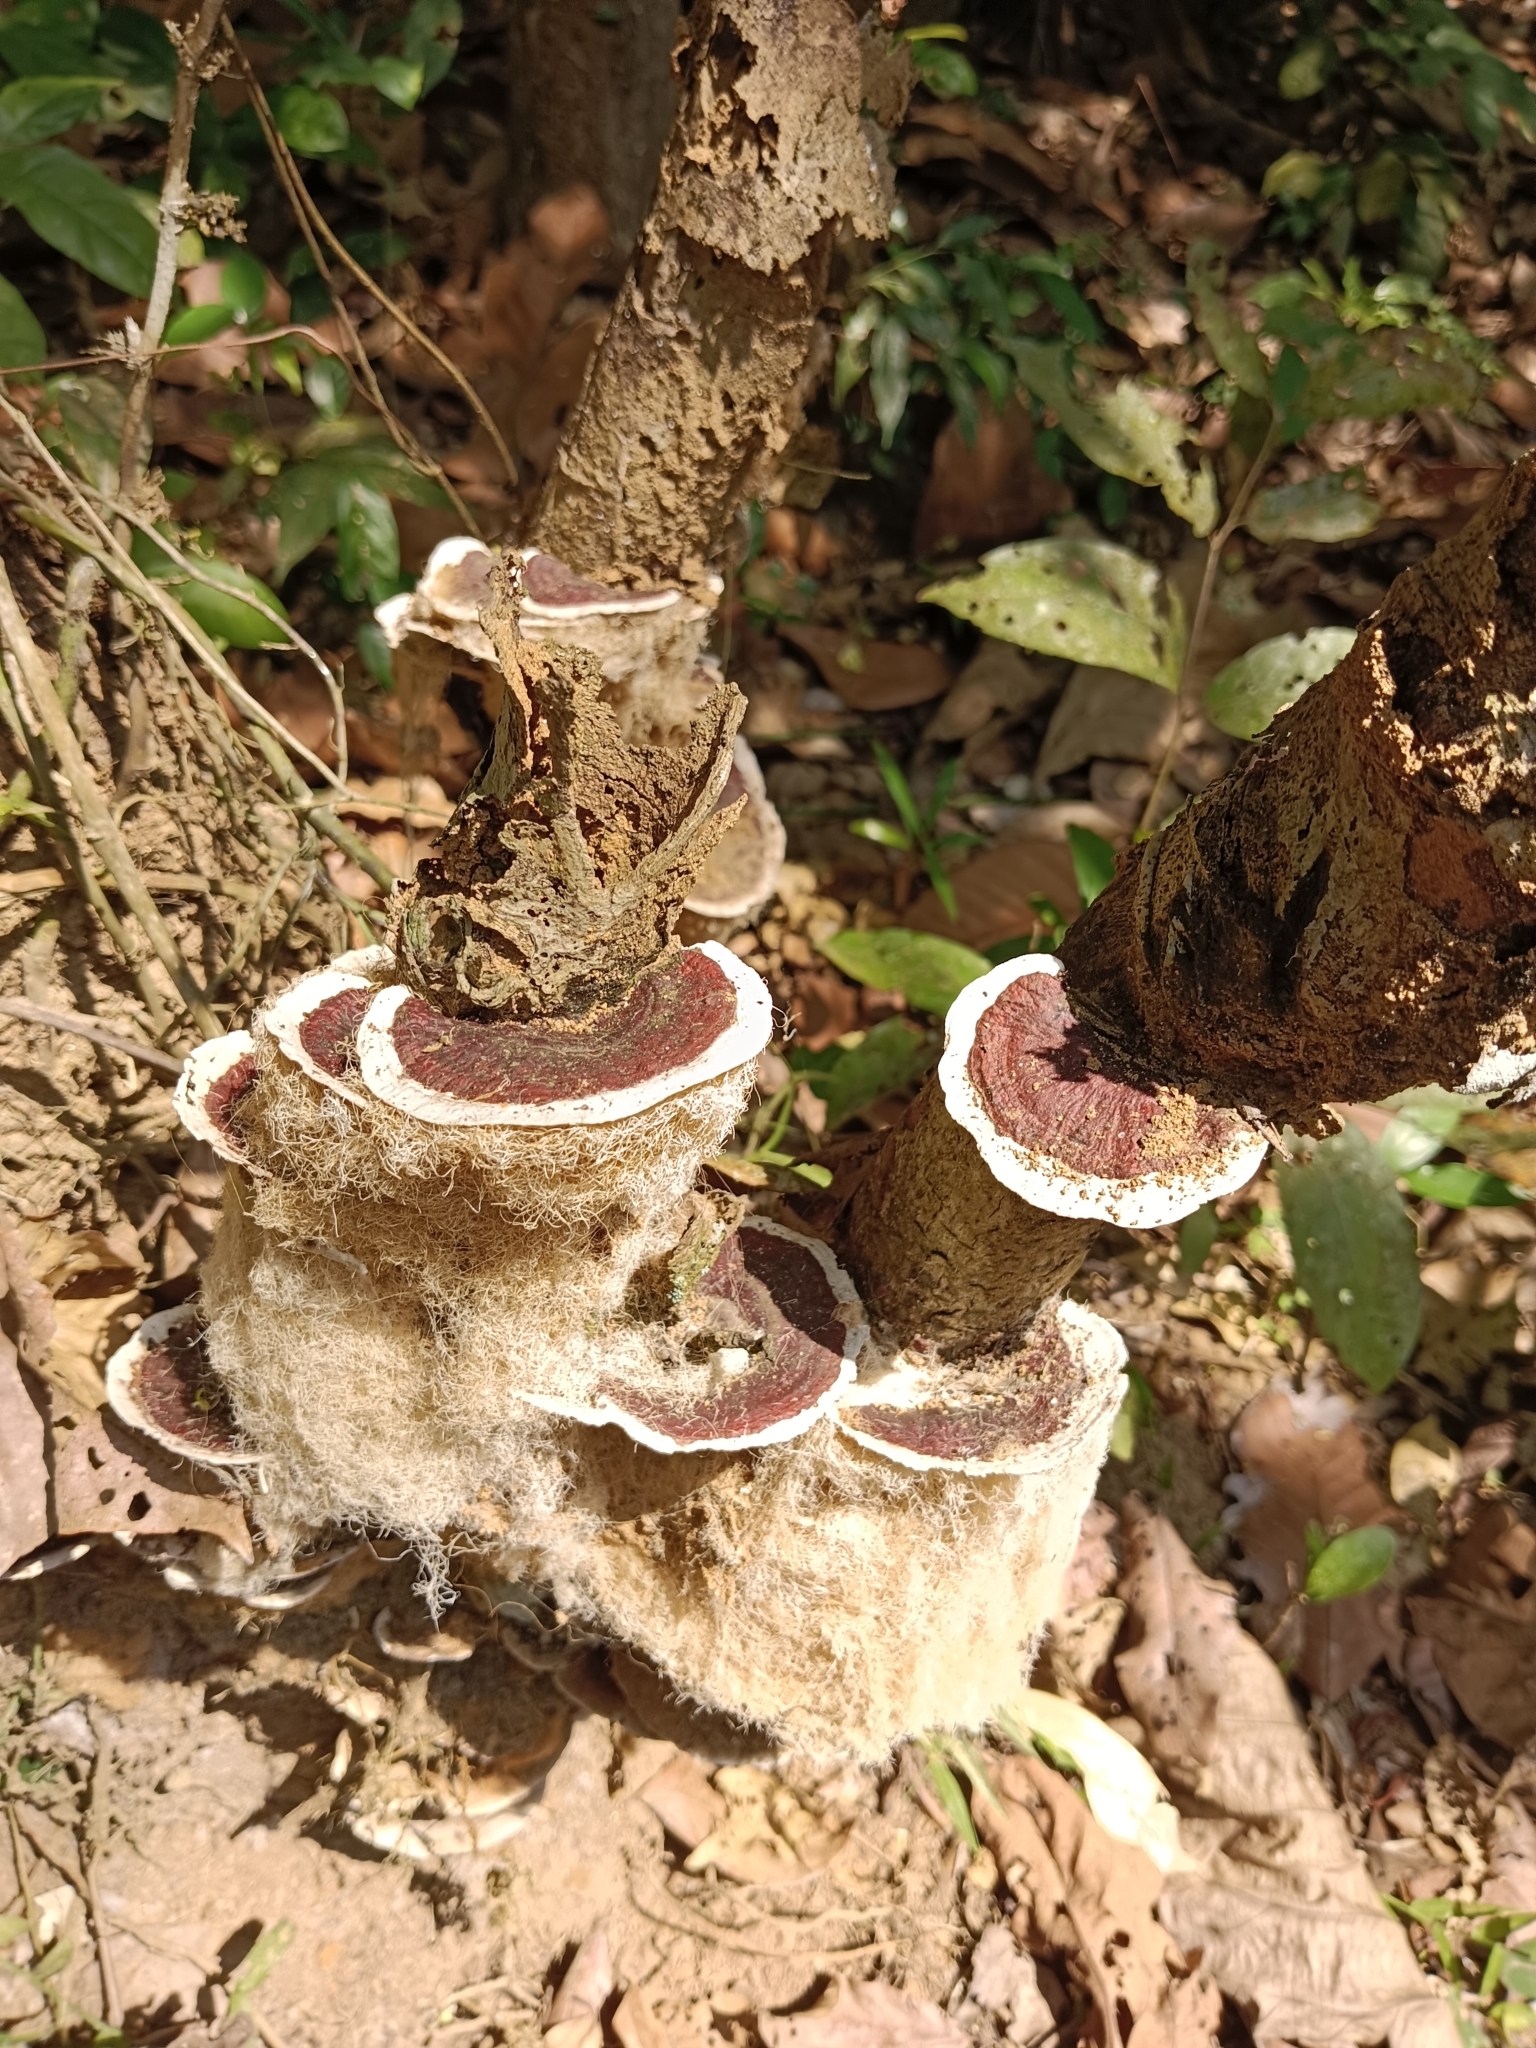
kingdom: Fungi
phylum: Basidiomycota
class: Agaricomycetes
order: Polyporales
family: Polyporaceae
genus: Earliella
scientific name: Earliella scabrosa
